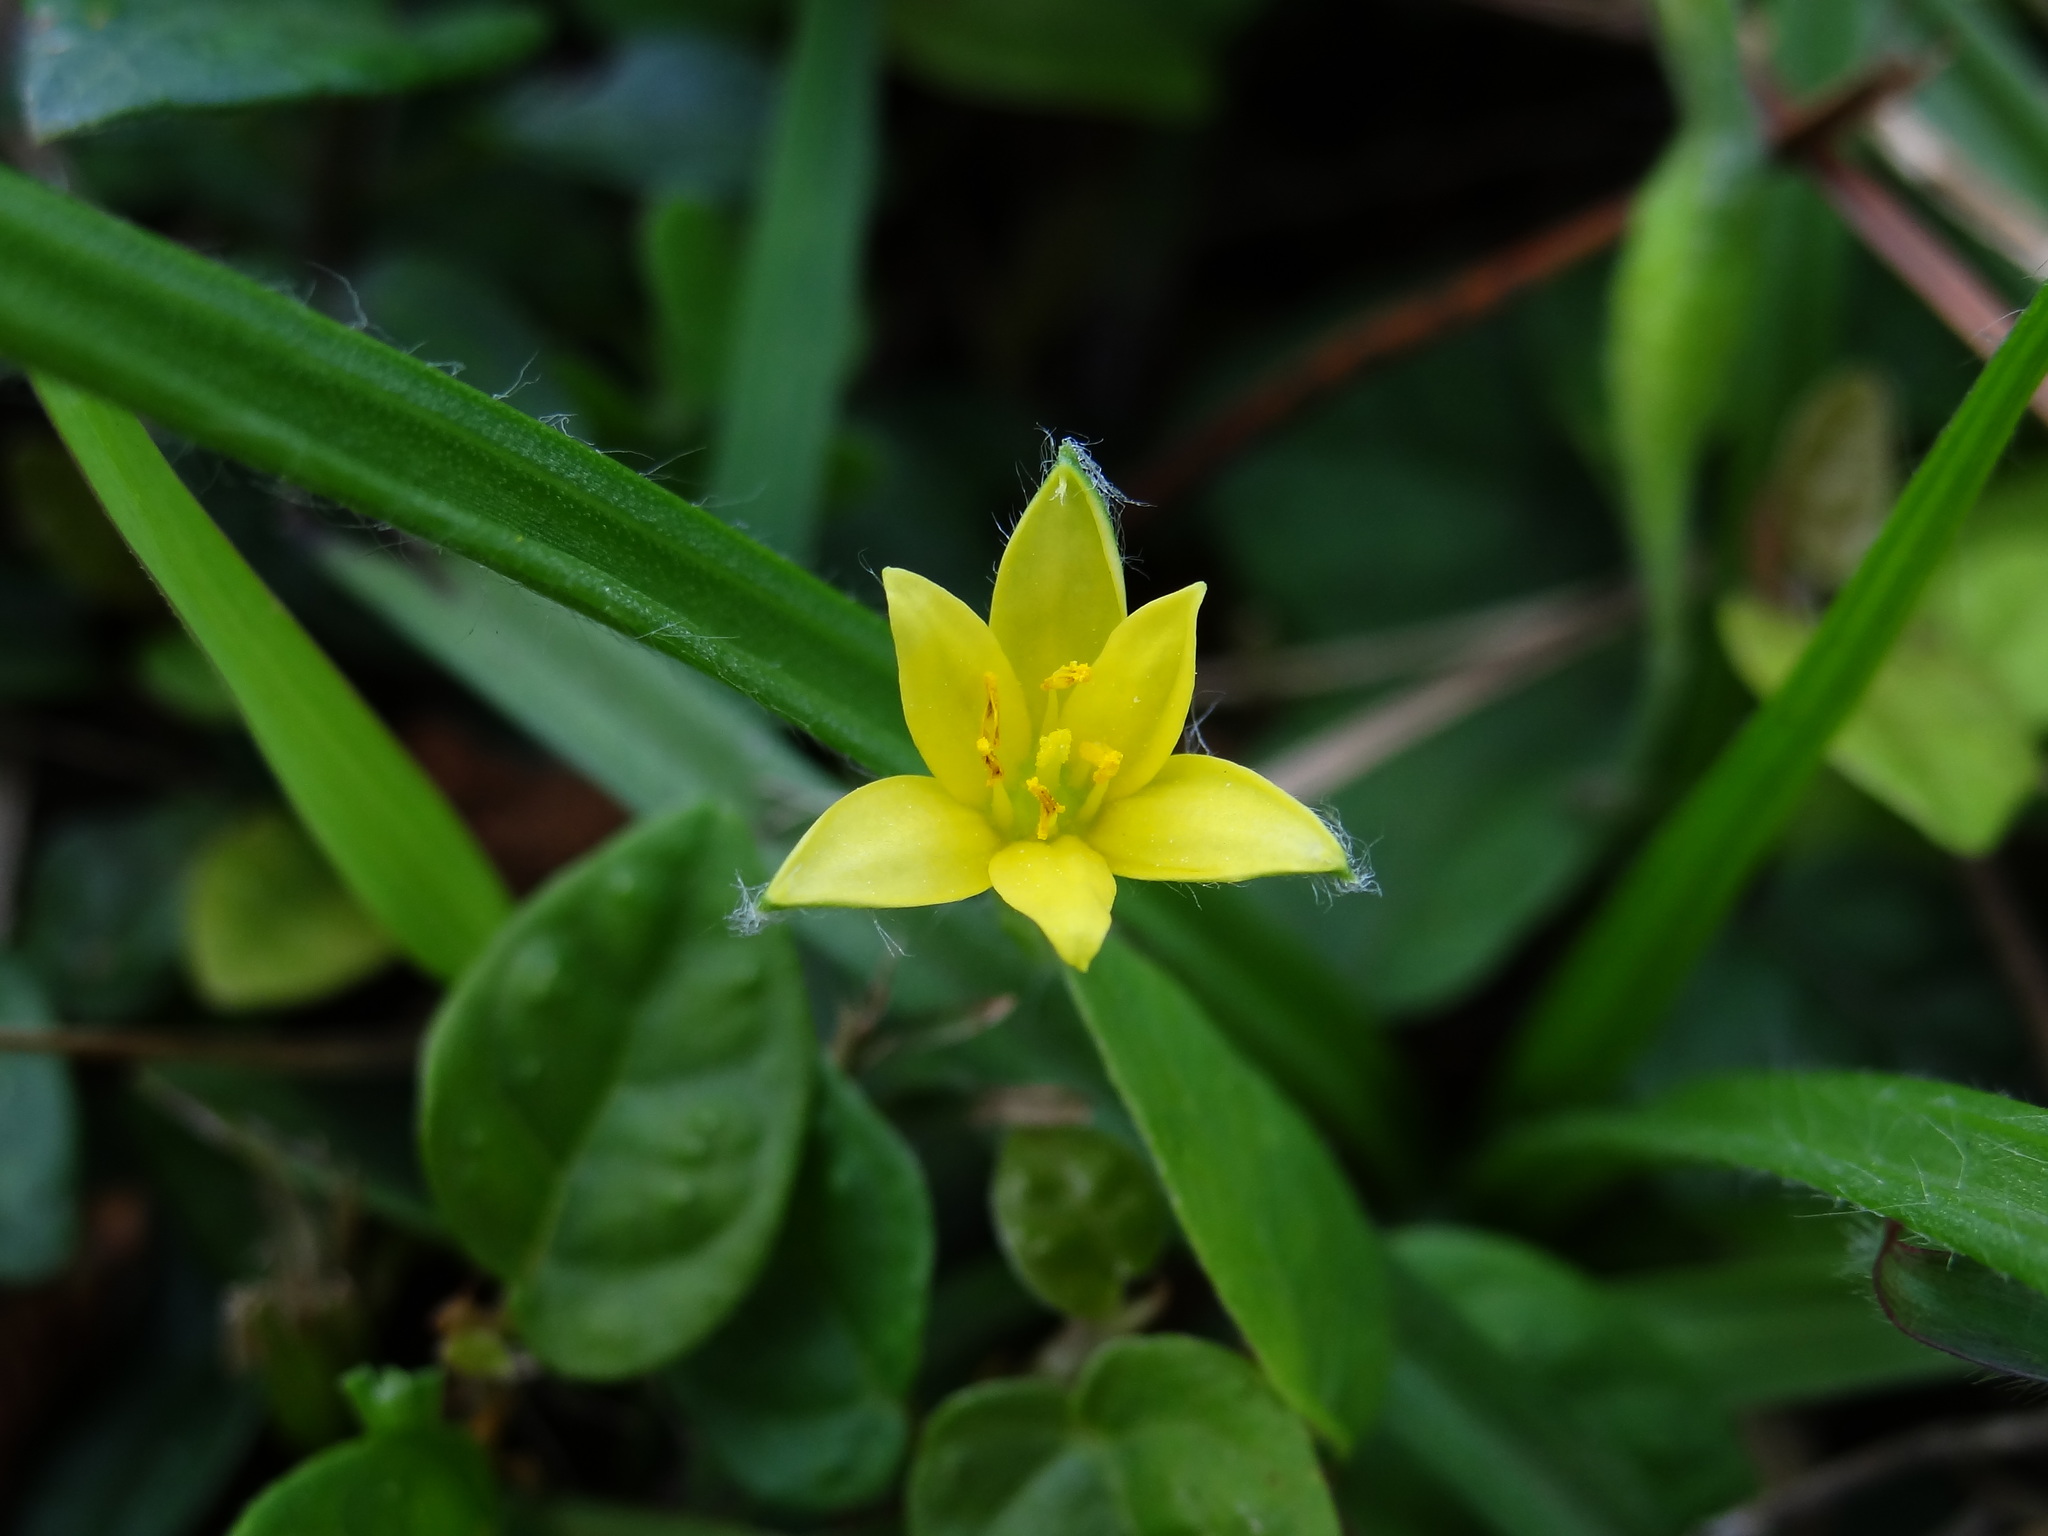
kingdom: Plantae
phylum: Tracheophyta
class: Liliopsida
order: Asparagales
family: Hypoxidaceae
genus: Hypoxis
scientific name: Hypoxis aurea
